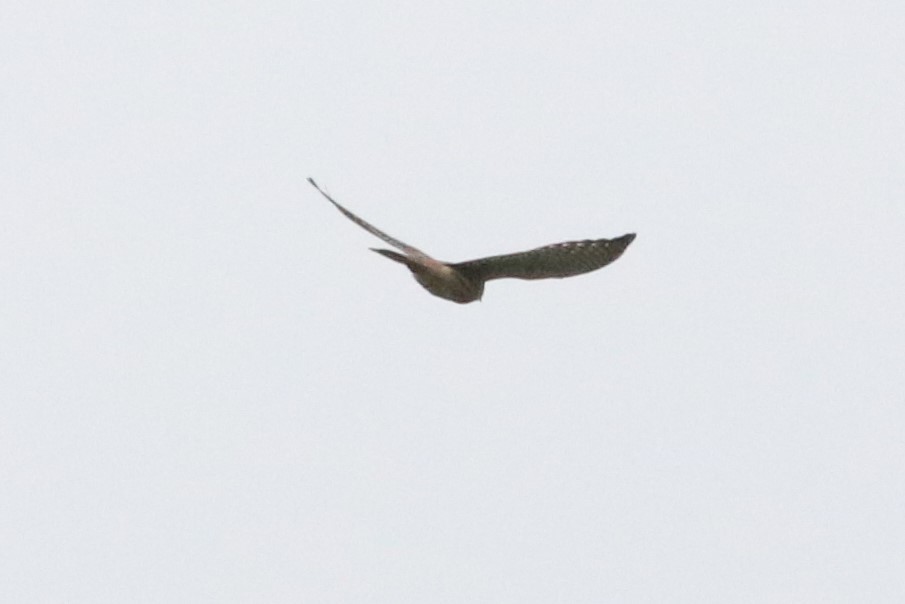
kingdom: Animalia
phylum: Chordata
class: Aves
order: Falconiformes
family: Falconidae
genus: Falco
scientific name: Falco sparverius
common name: American kestrel
